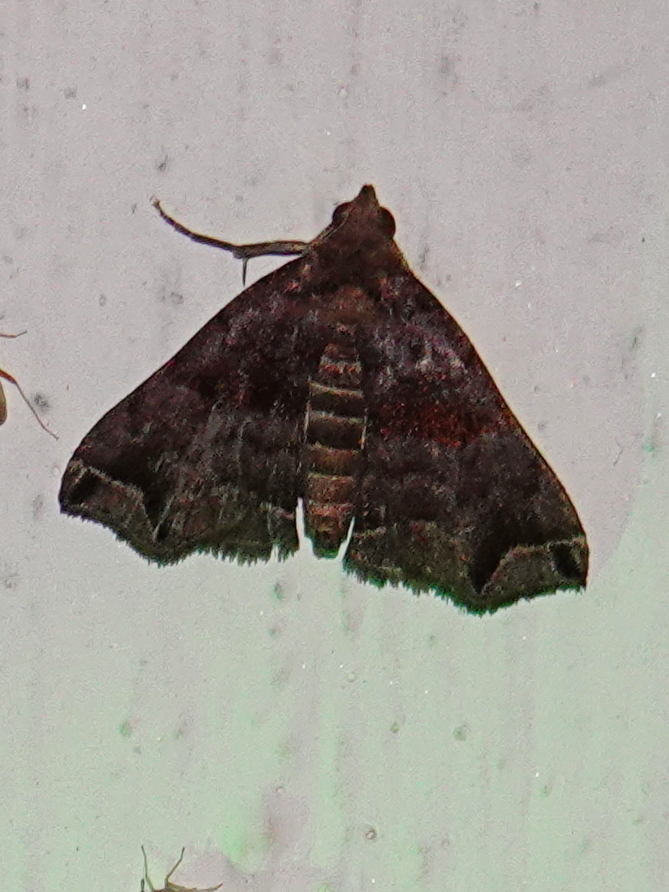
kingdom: Animalia
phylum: Arthropoda
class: Insecta
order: Lepidoptera
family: Erebidae
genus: Polypogon
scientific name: Polypogon biasalis
